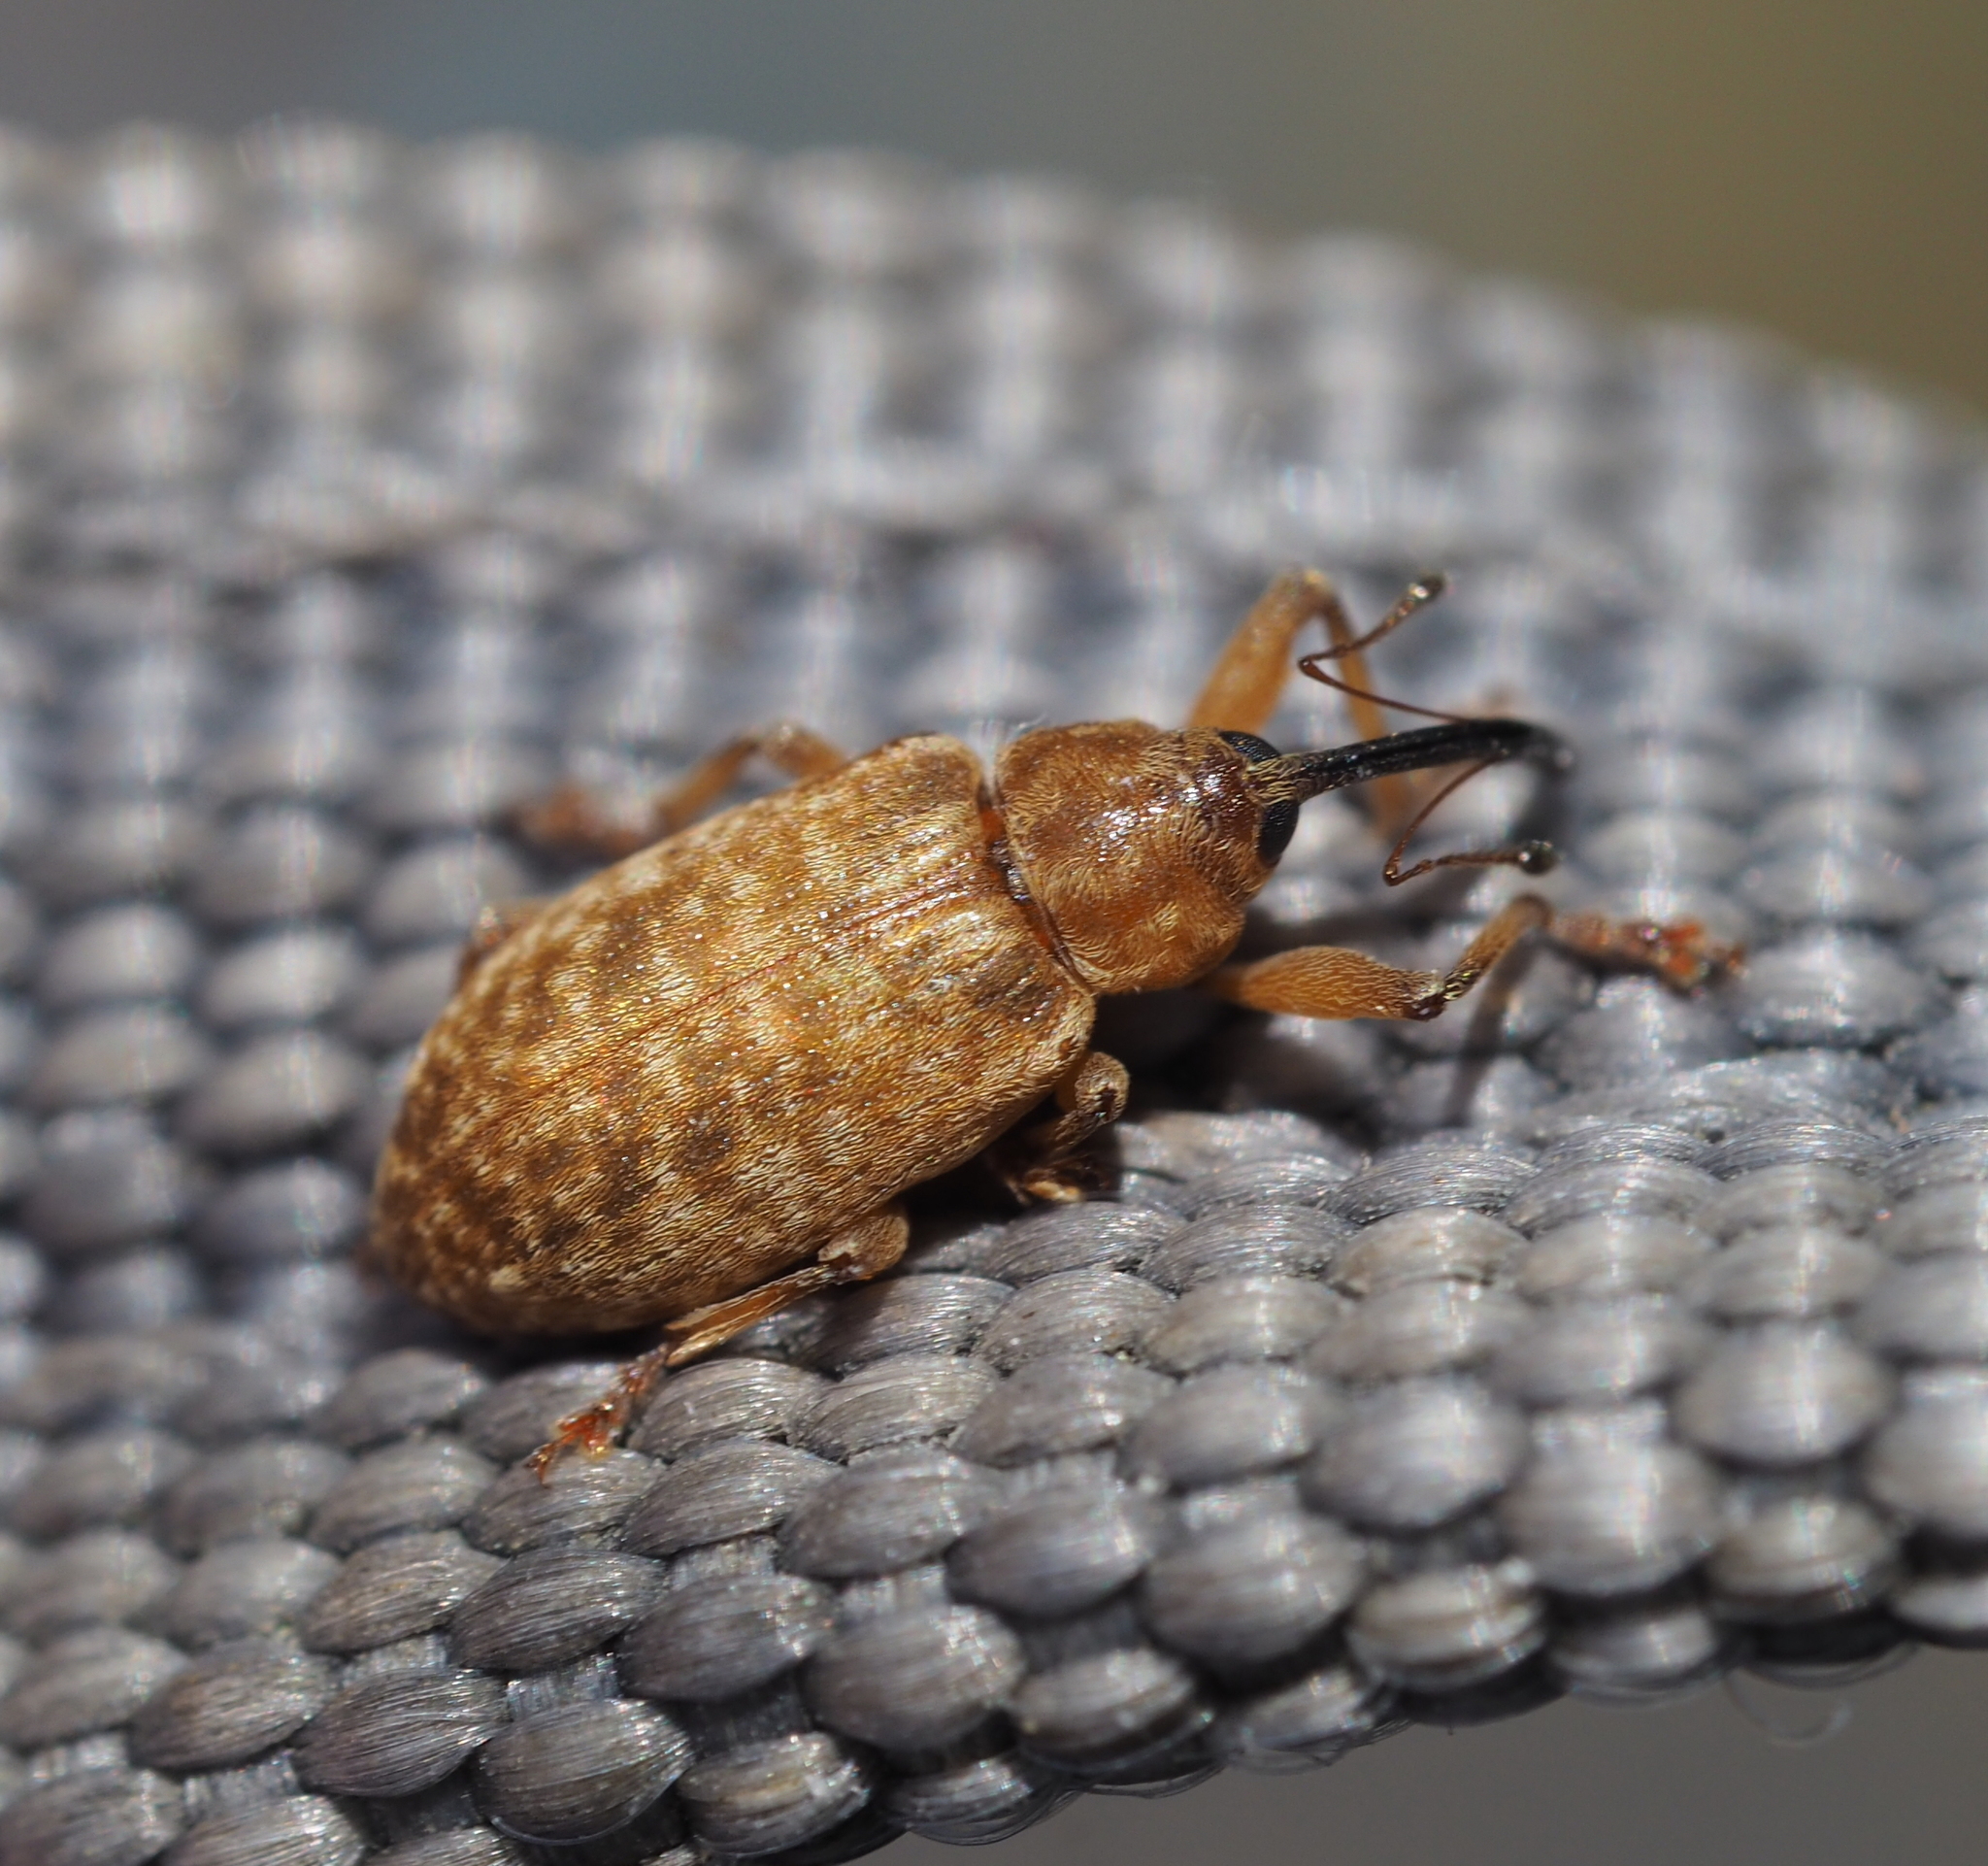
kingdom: Animalia
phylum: Arthropoda
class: Insecta
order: Coleoptera
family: Curculionidae
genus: Dorytomus
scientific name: Dorytomus longimanus
